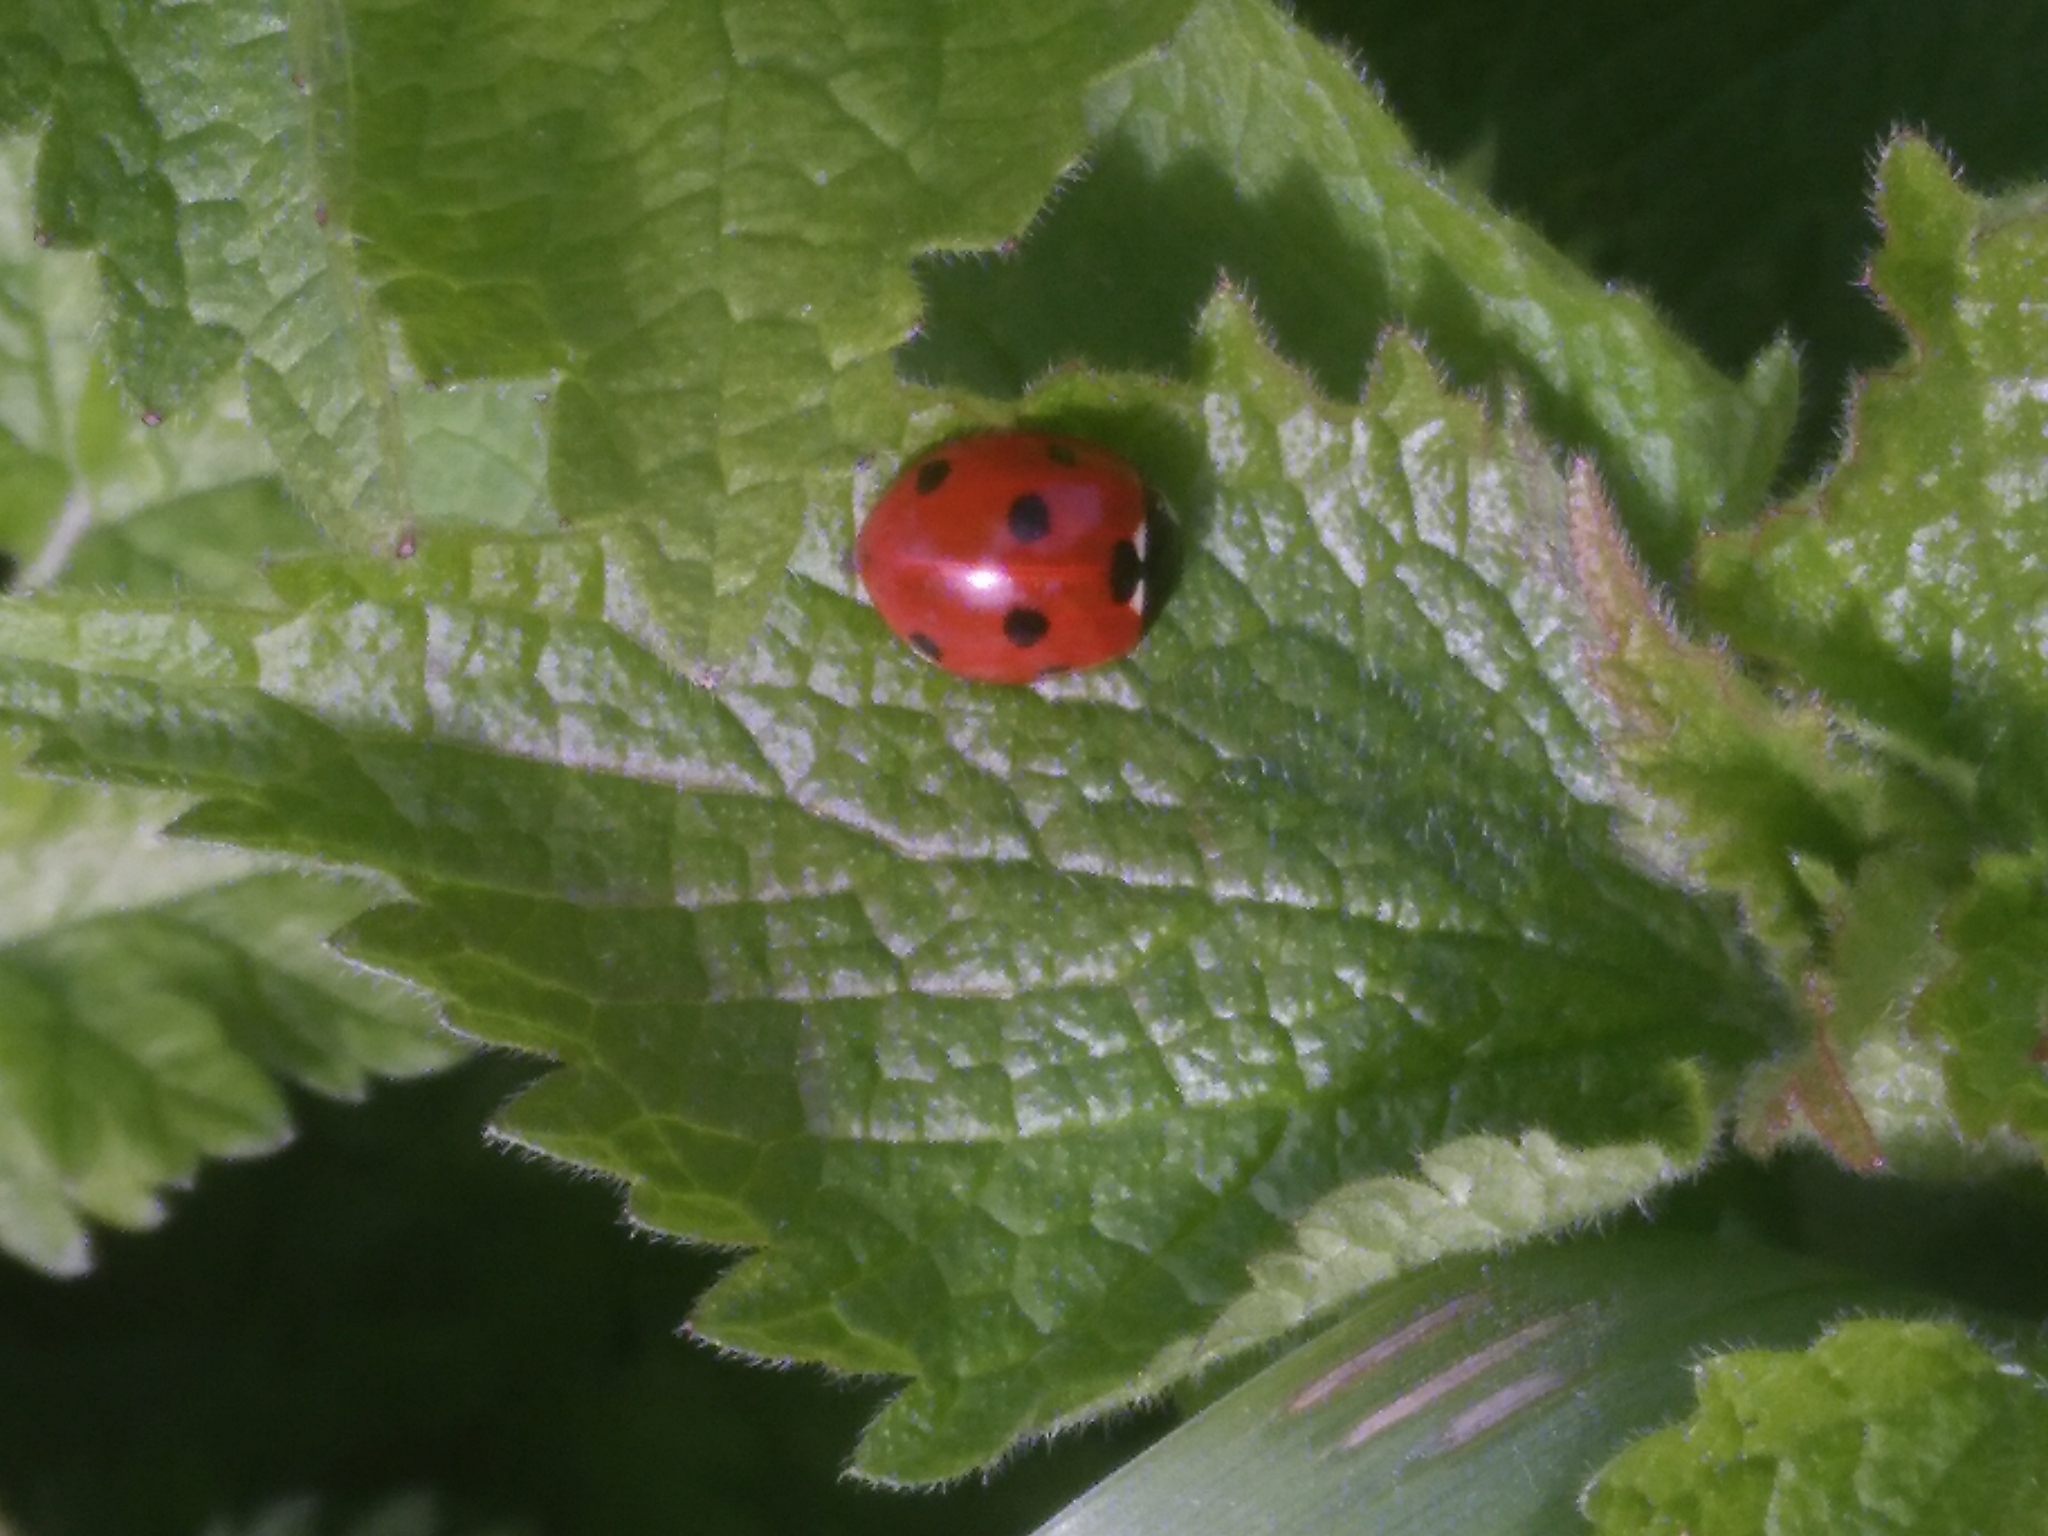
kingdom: Animalia
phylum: Arthropoda
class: Insecta
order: Coleoptera
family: Coccinellidae
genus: Coccinella
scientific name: Coccinella septempunctata
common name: Sevenspotted lady beetle
